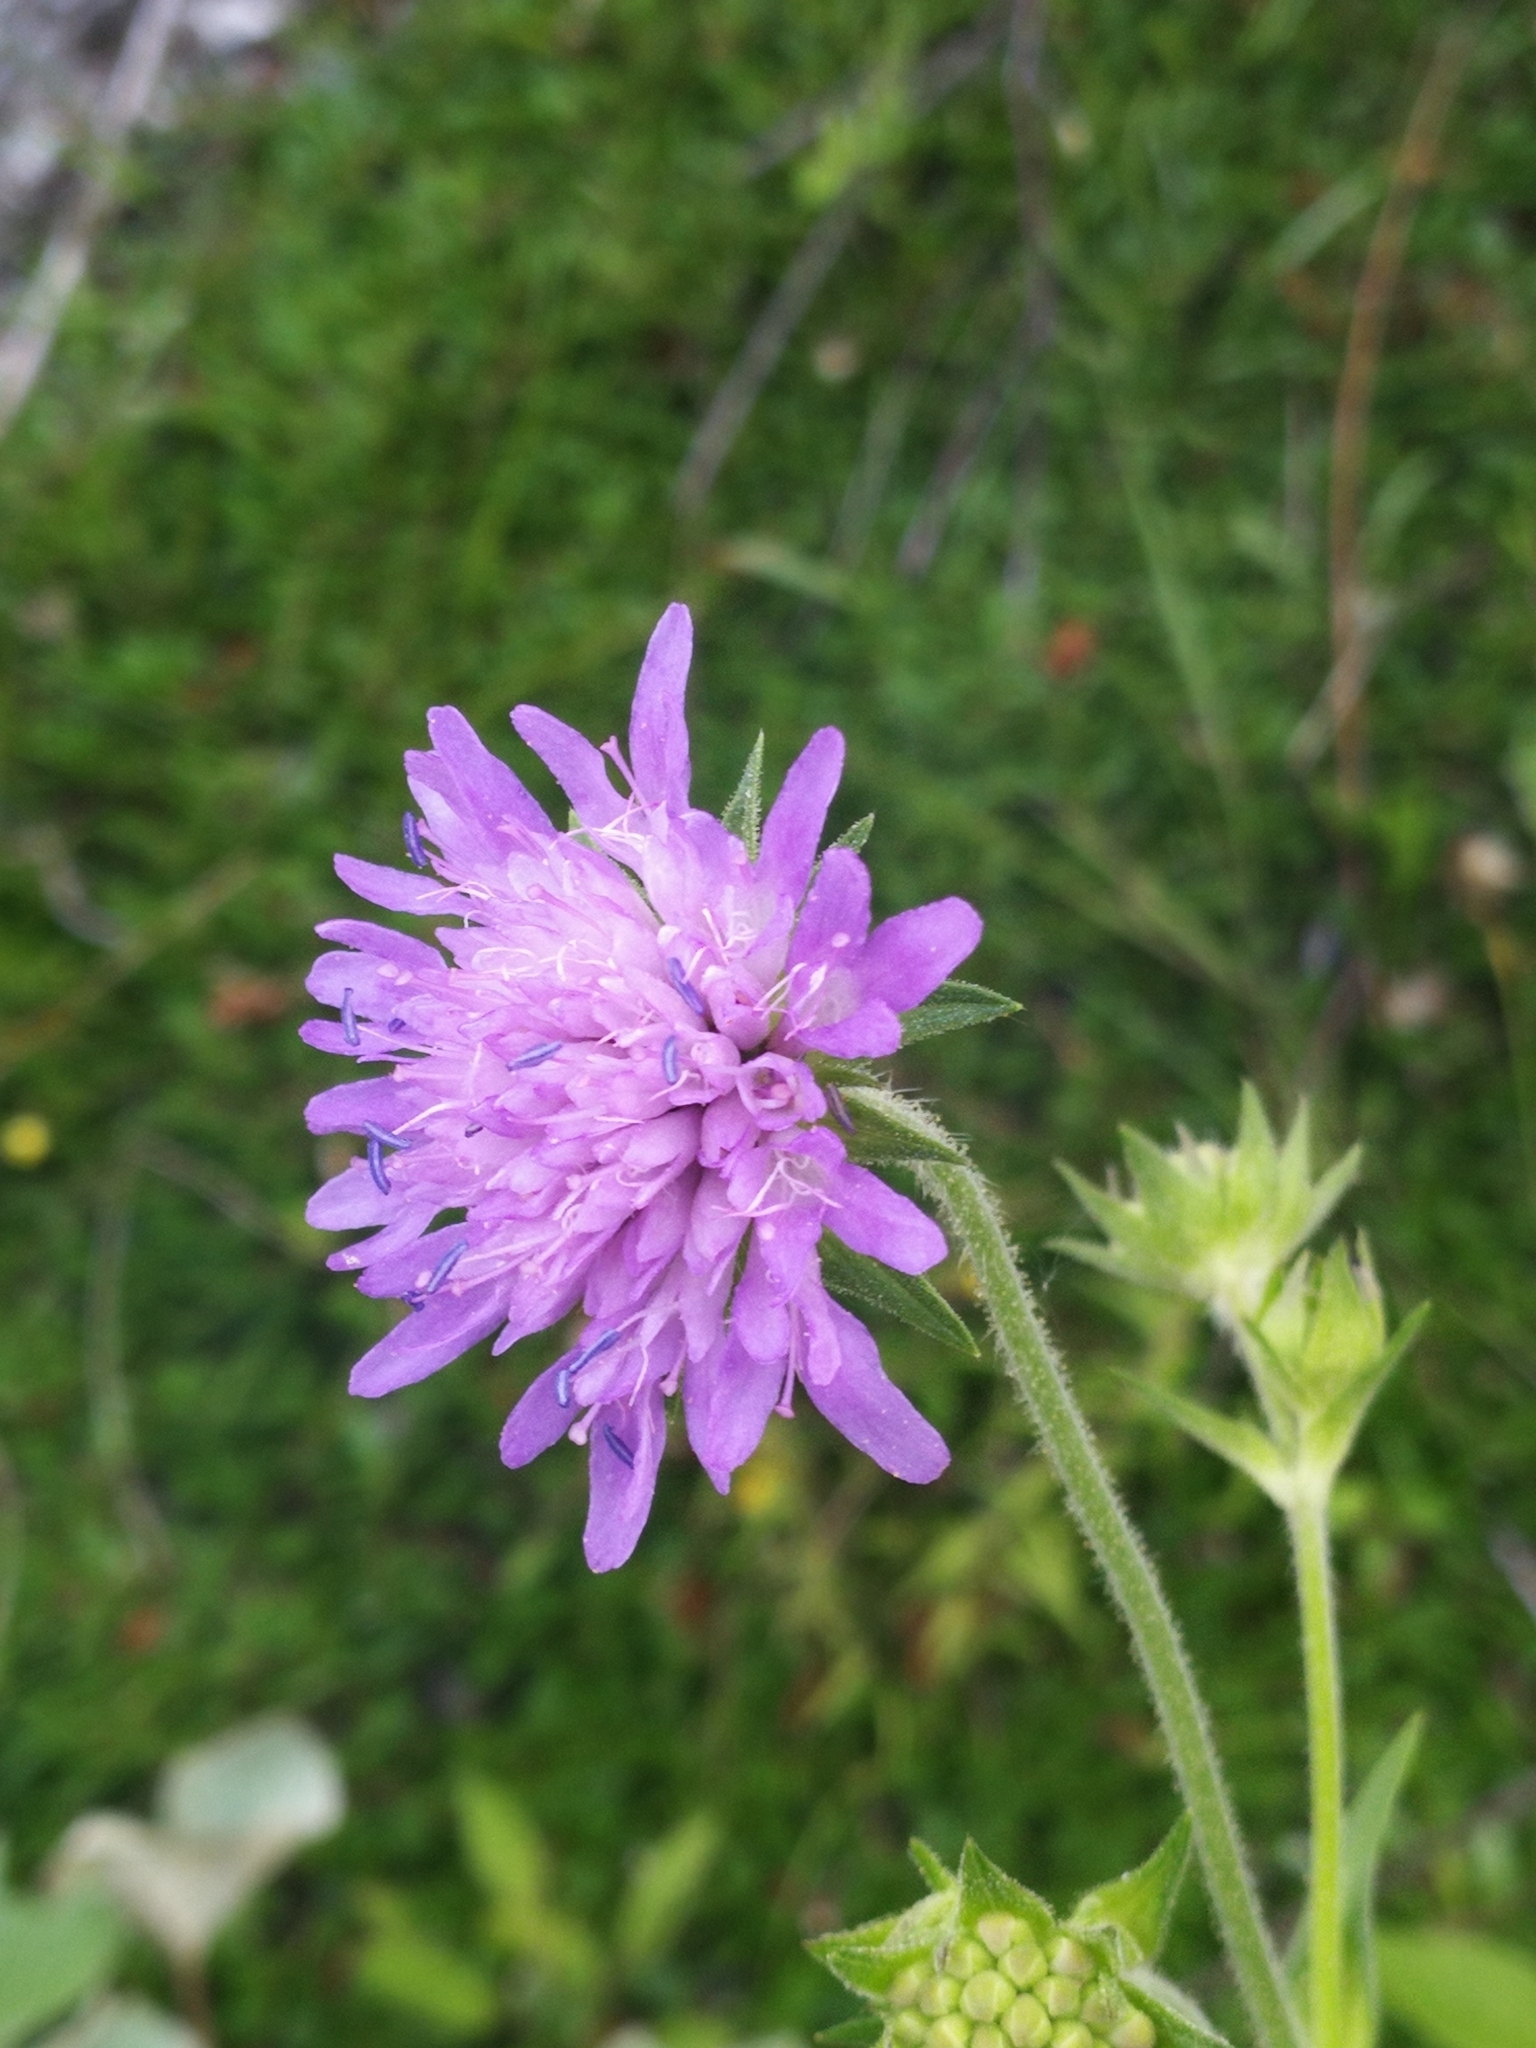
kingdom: Plantae
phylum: Tracheophyta
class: Magnoliopsida
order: Dipsacales
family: Caprifoliaceae
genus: Knautia
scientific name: Knautia dipsacifolia
